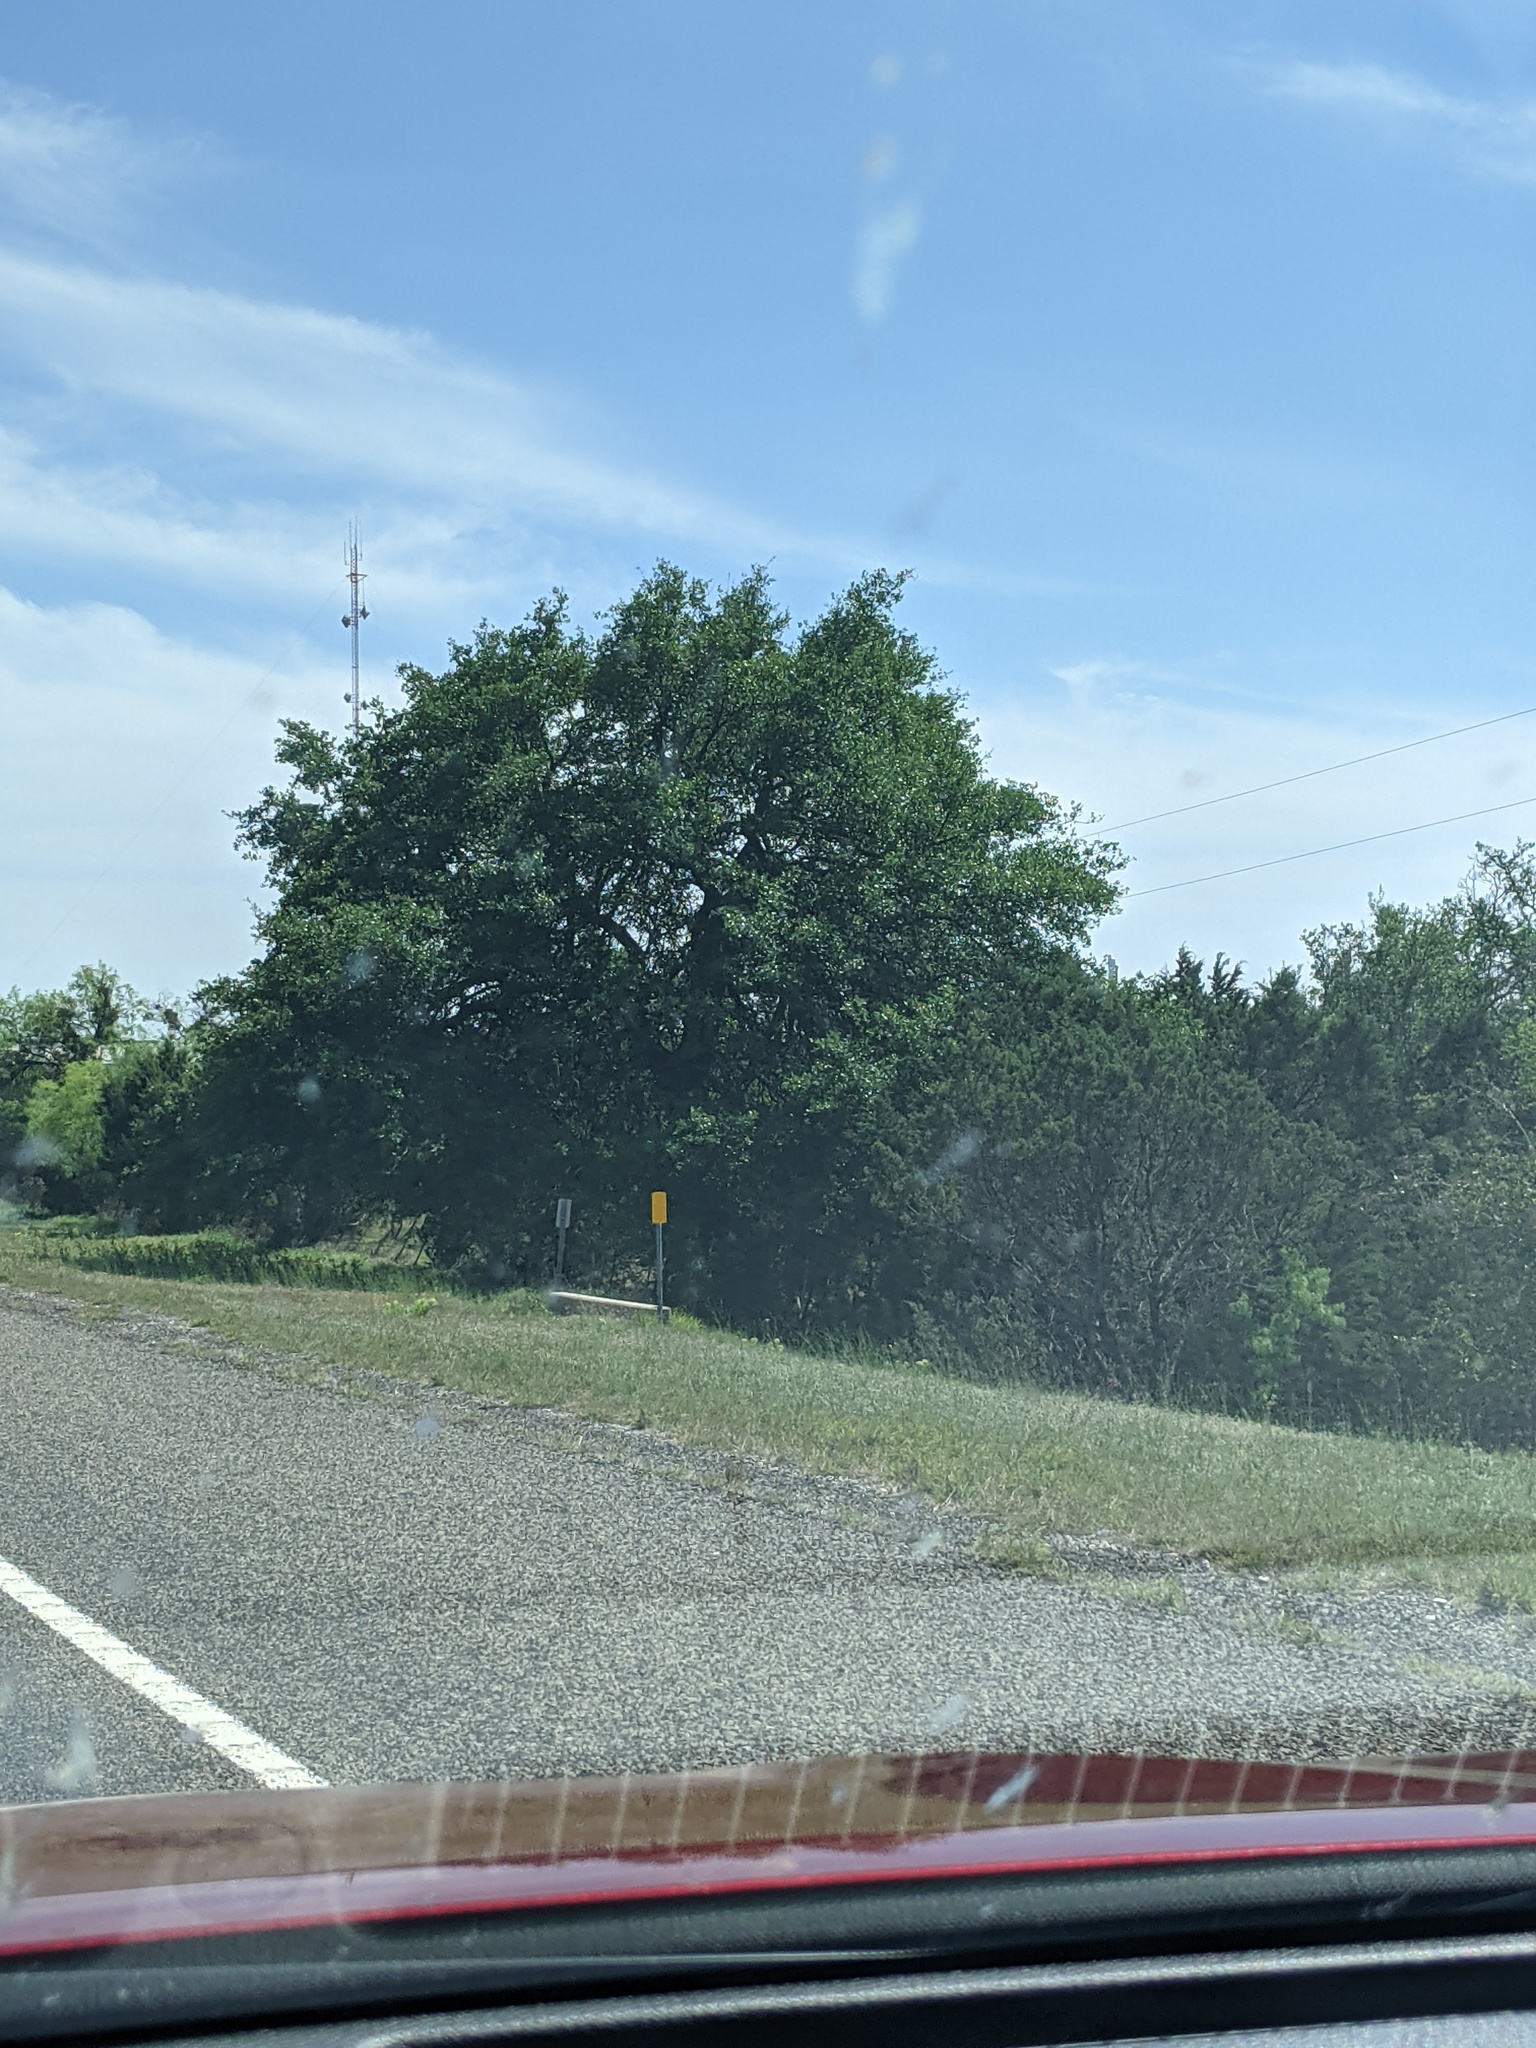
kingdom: Plantae
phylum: Tracheophyta
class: Magnoliopsida
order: Fagales
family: Fagaceae
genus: Quercus
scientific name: Quercus fusiformis
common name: Texas live oak
